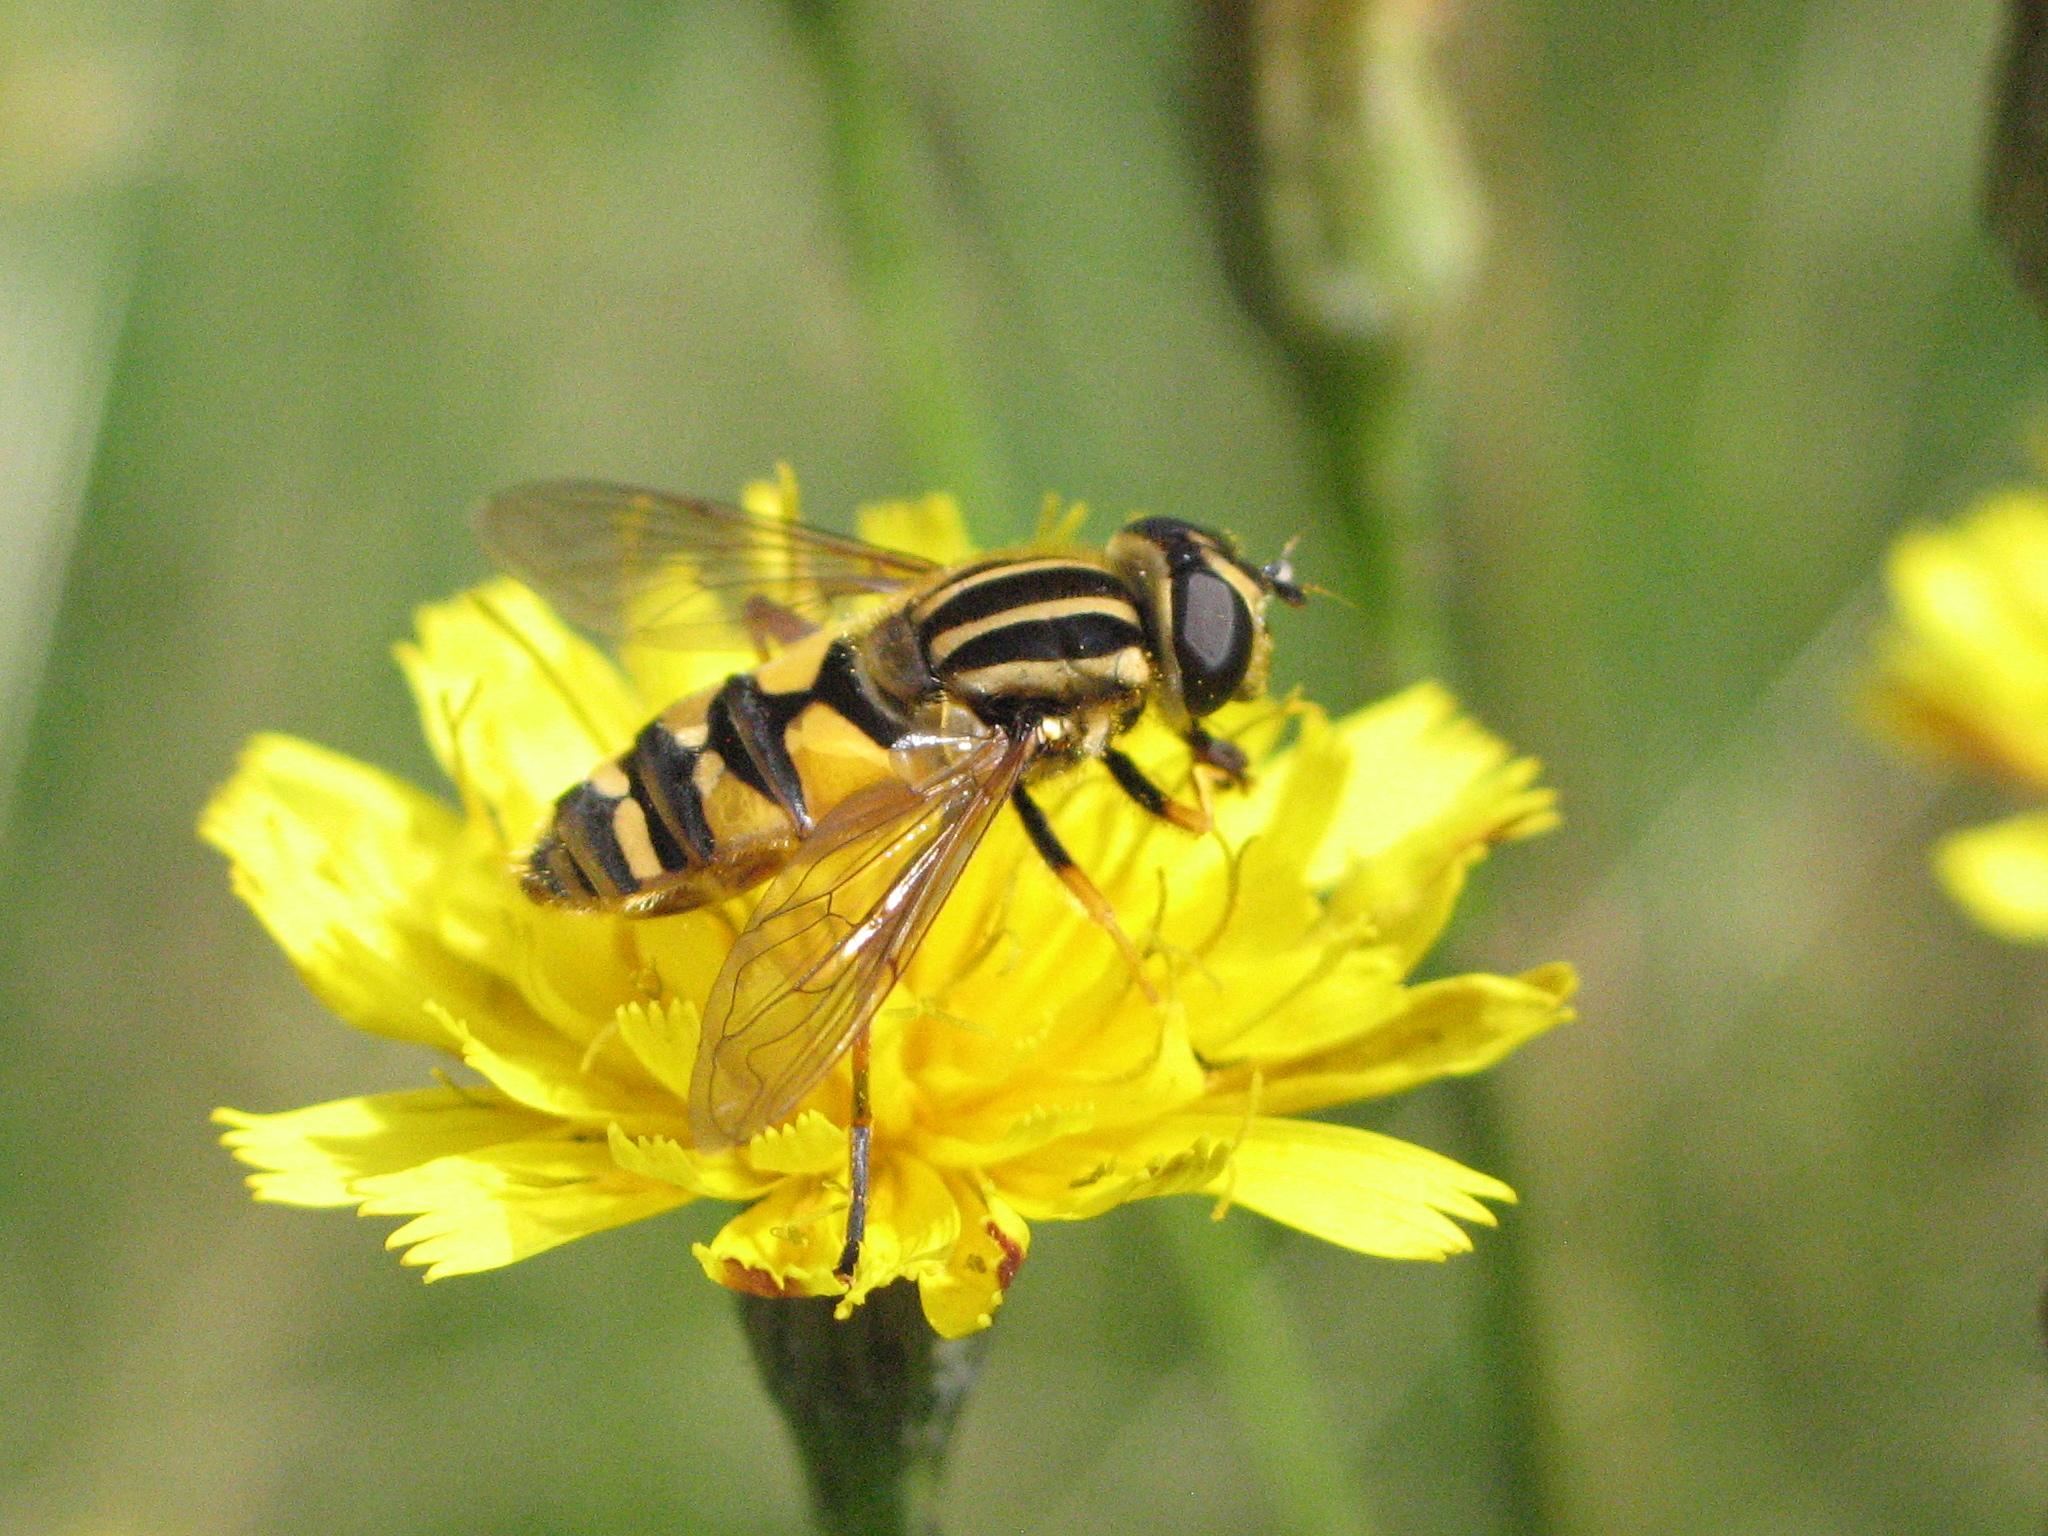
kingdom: Animalia
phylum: Arthropoda
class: Insecta
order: Diptera
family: Syrphidae
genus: Helophilus
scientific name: Helophilus pendulus
